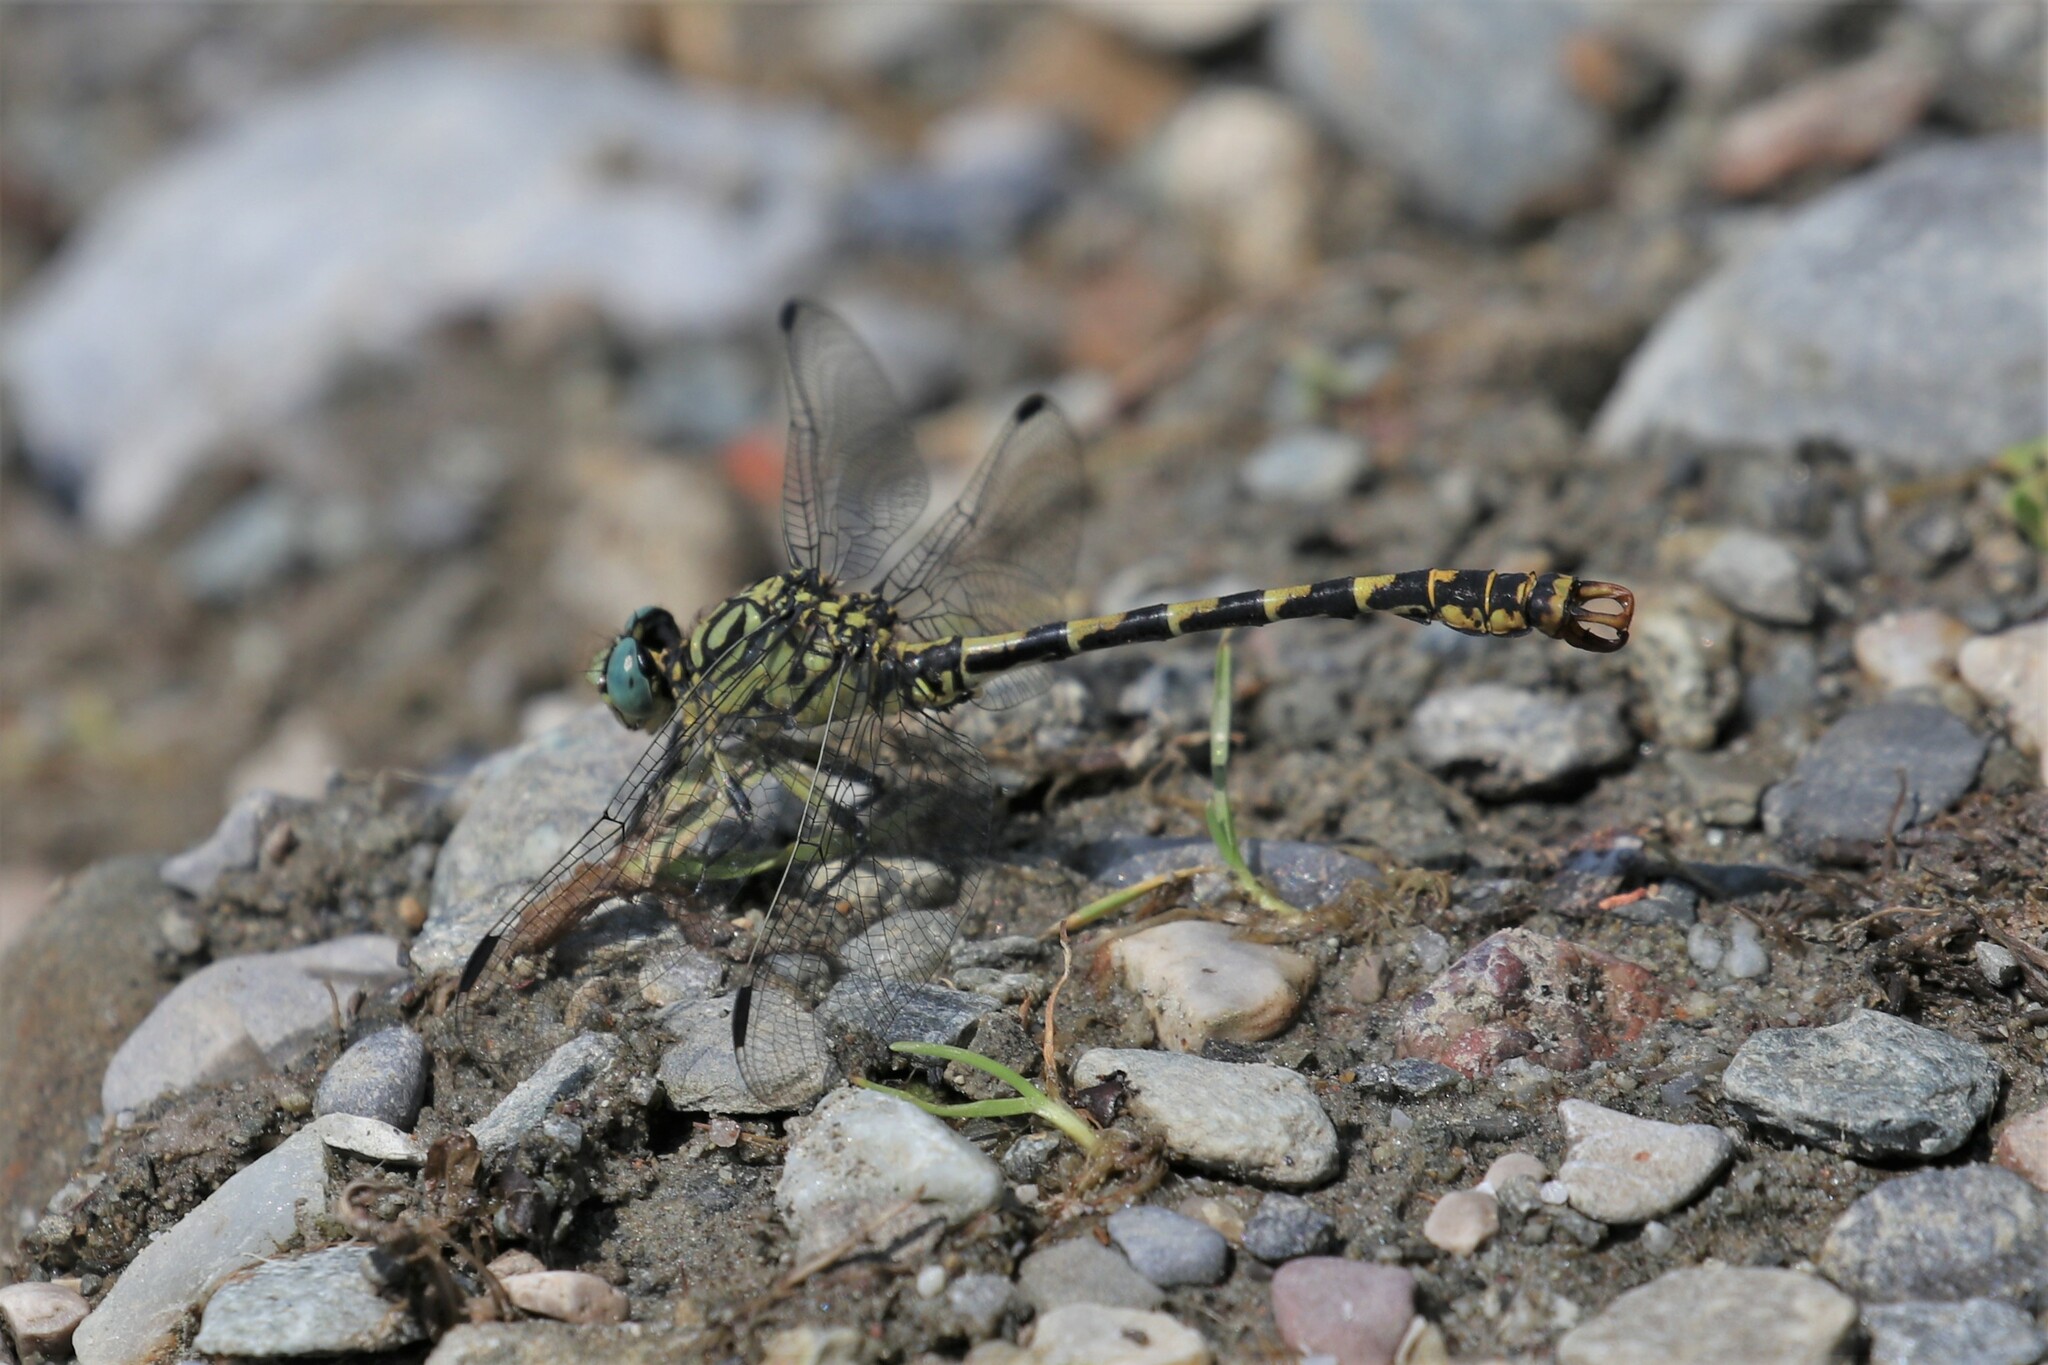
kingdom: Animalia
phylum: Arthropoda
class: Insecta
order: Odonata
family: Gomphidae
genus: Onychogomphus
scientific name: Onychogomphus forcipatus
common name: Small pincertail
